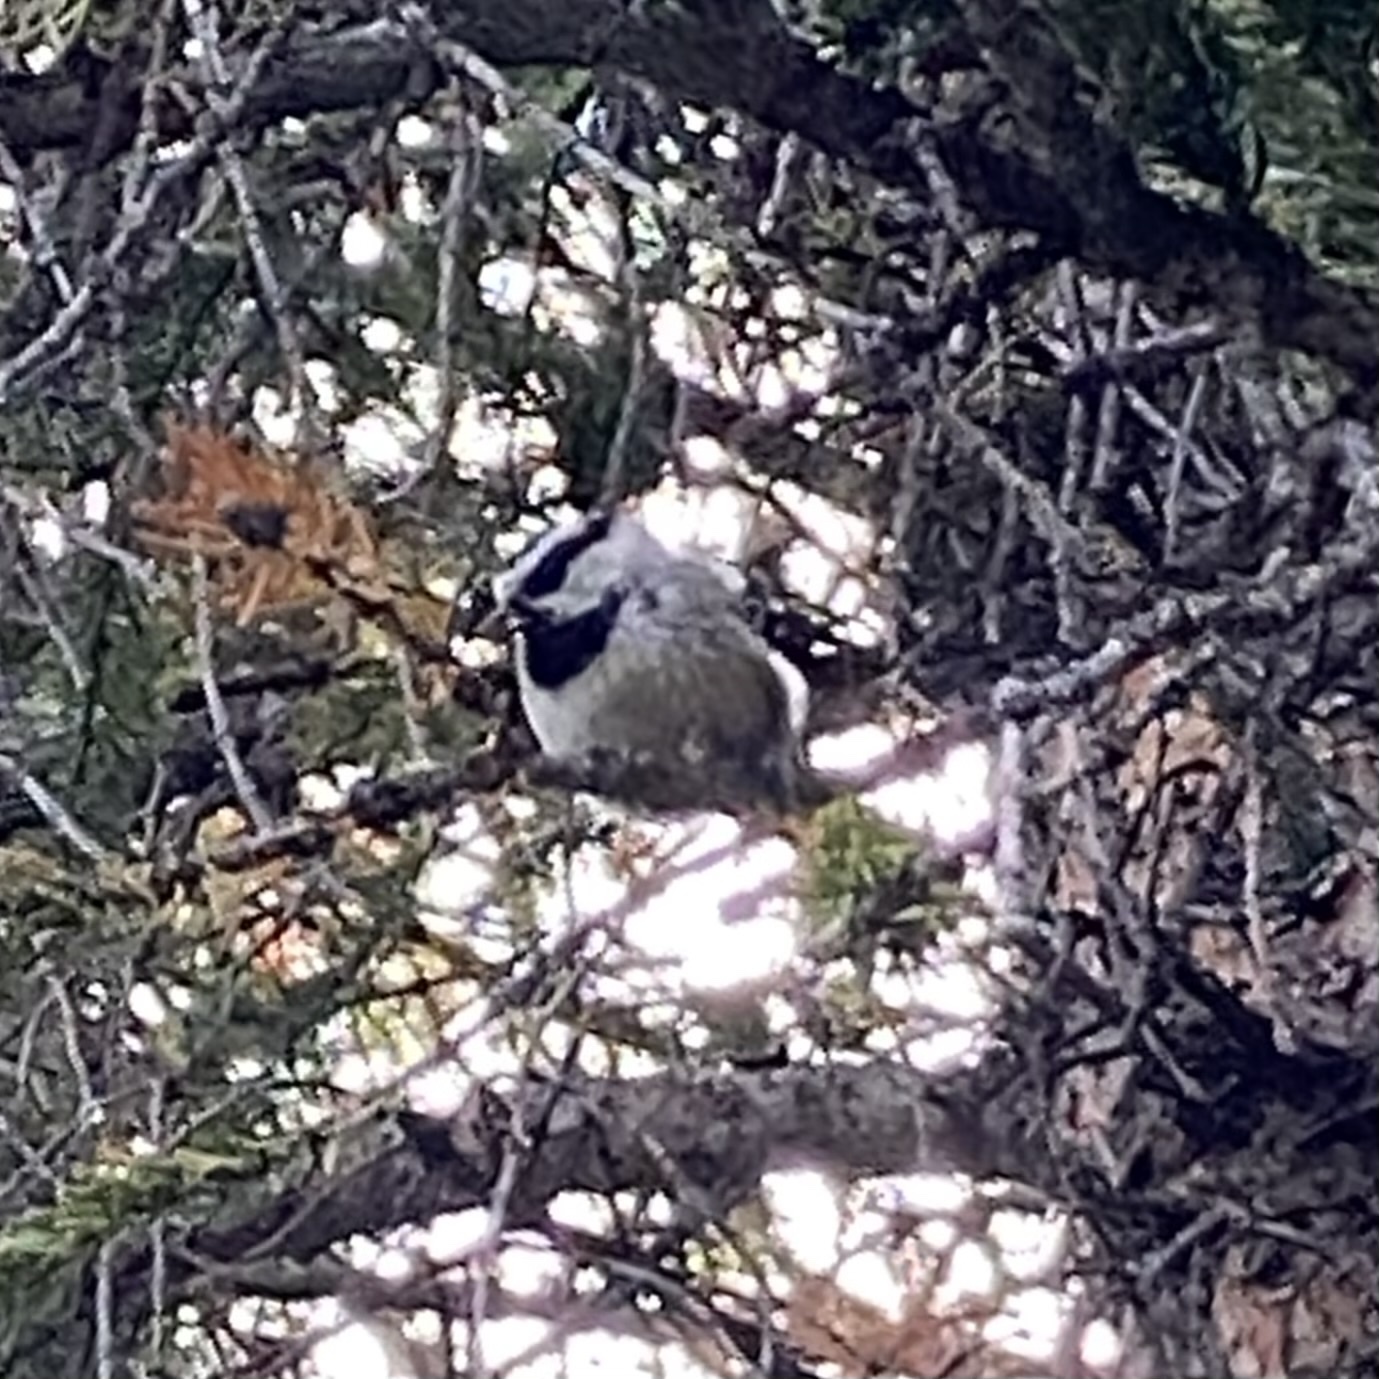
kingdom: Animalia
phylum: Chordata
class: Aves
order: Passeriformes
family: Paridae
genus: Poecile
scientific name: Poecile gambeli
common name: Mountain chickadee
